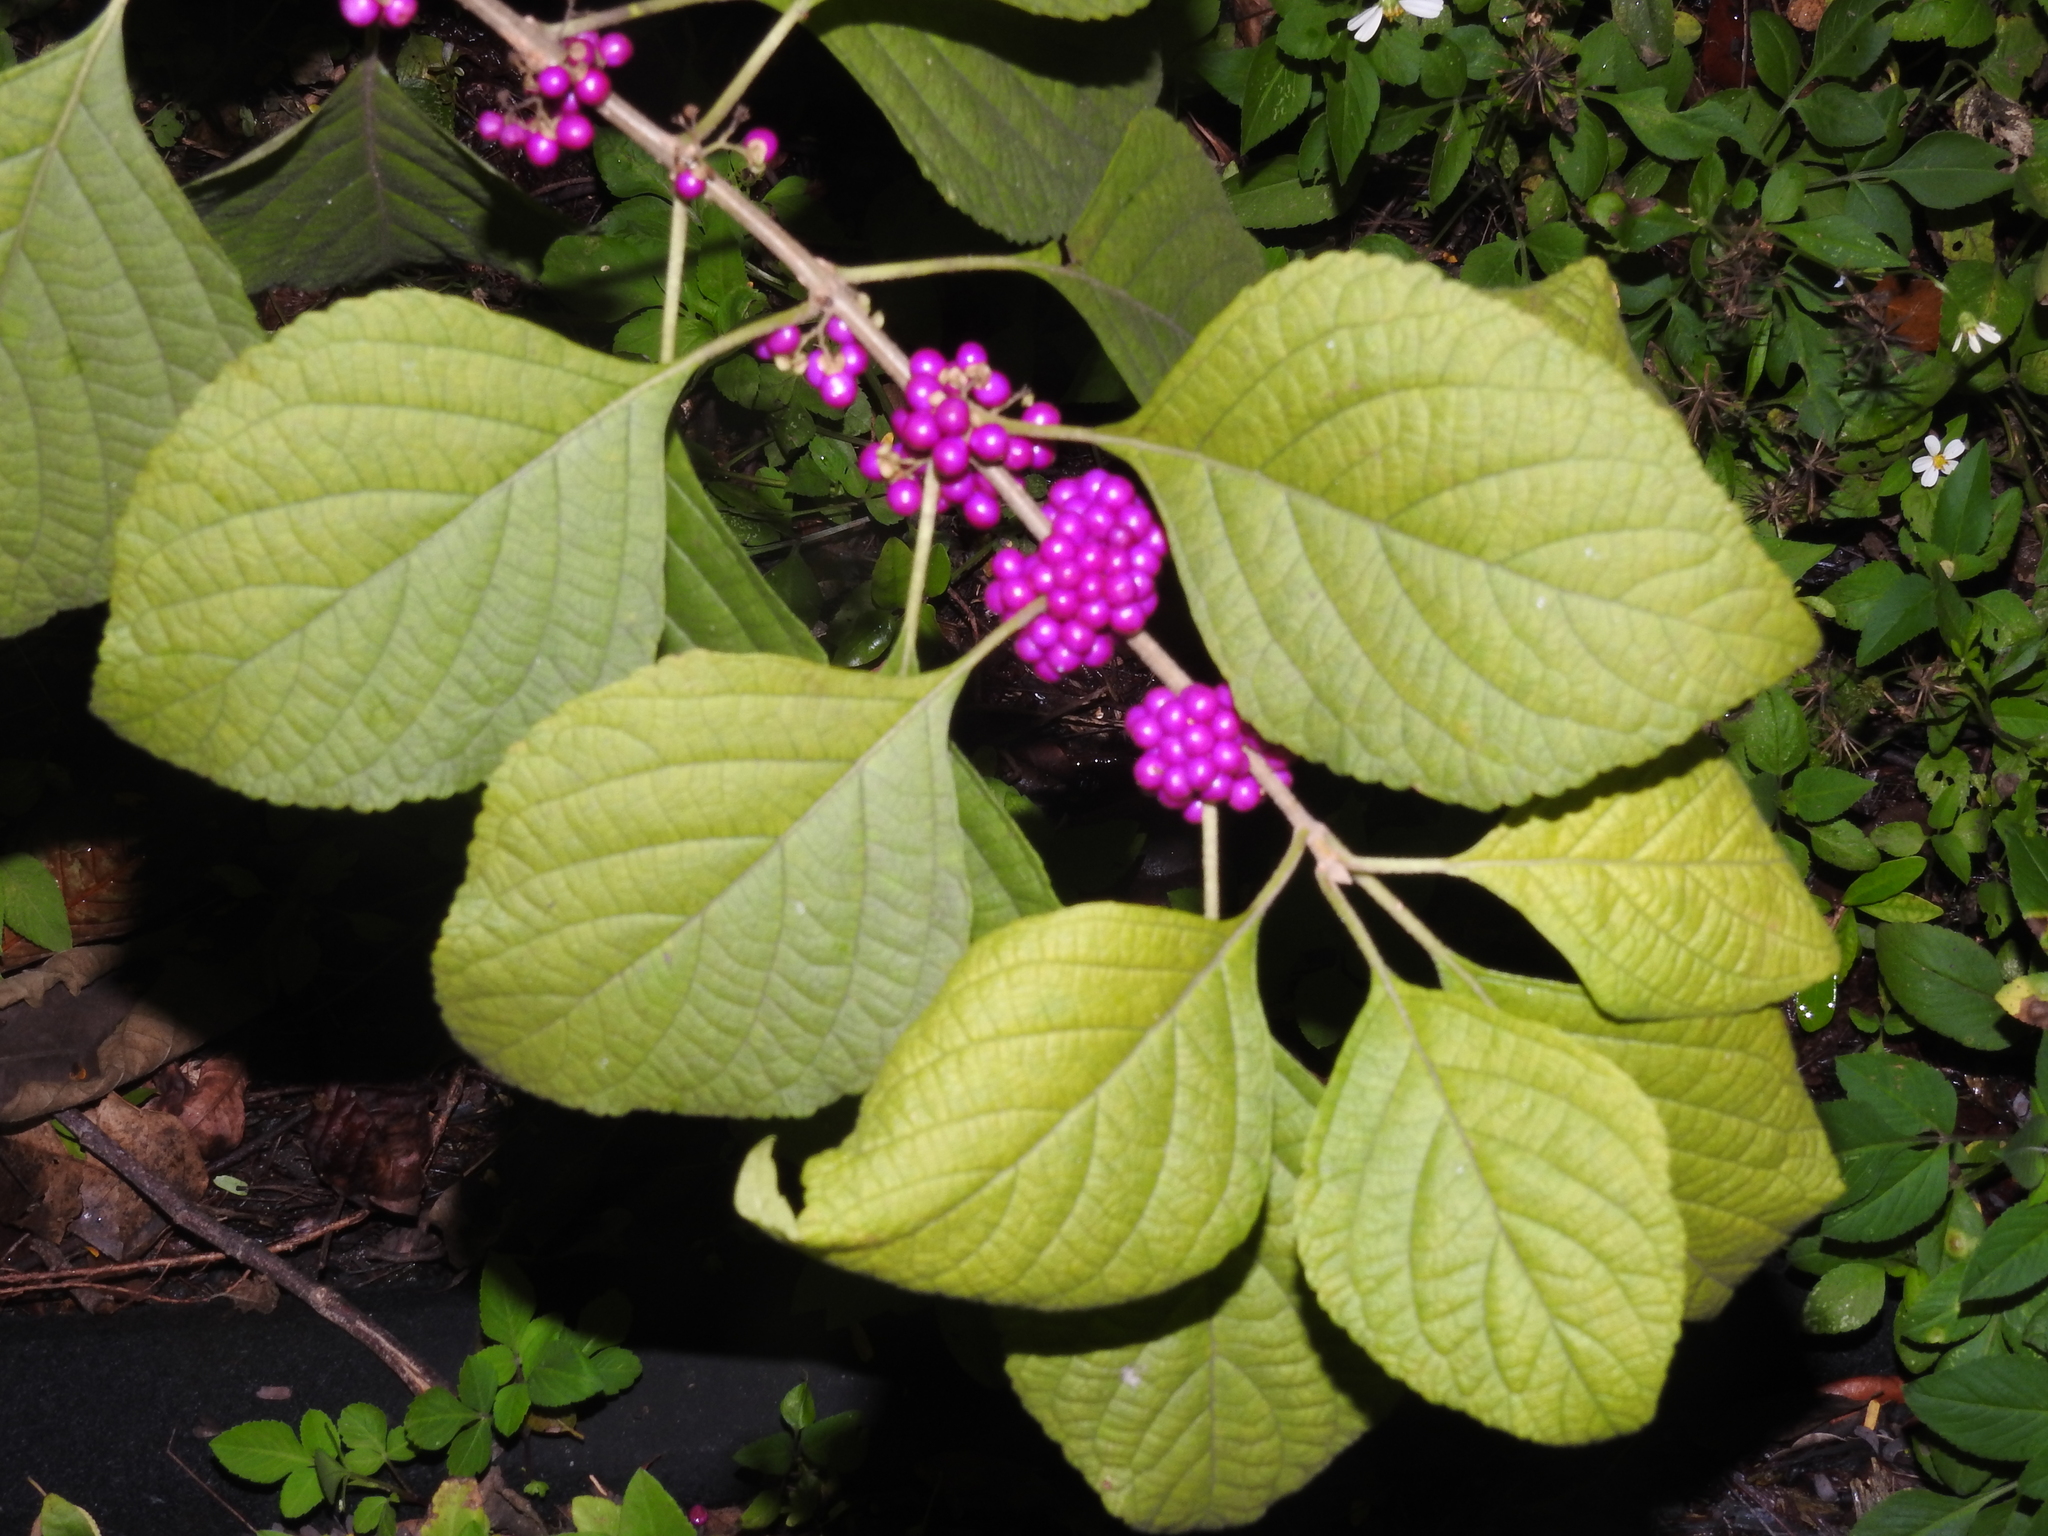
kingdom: Plantae
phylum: Tracheophyta
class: Magnoliopsida
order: Lamiales
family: Lamiaceae
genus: Callicarpa
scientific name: Callicarpa americana
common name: American beautyberry
